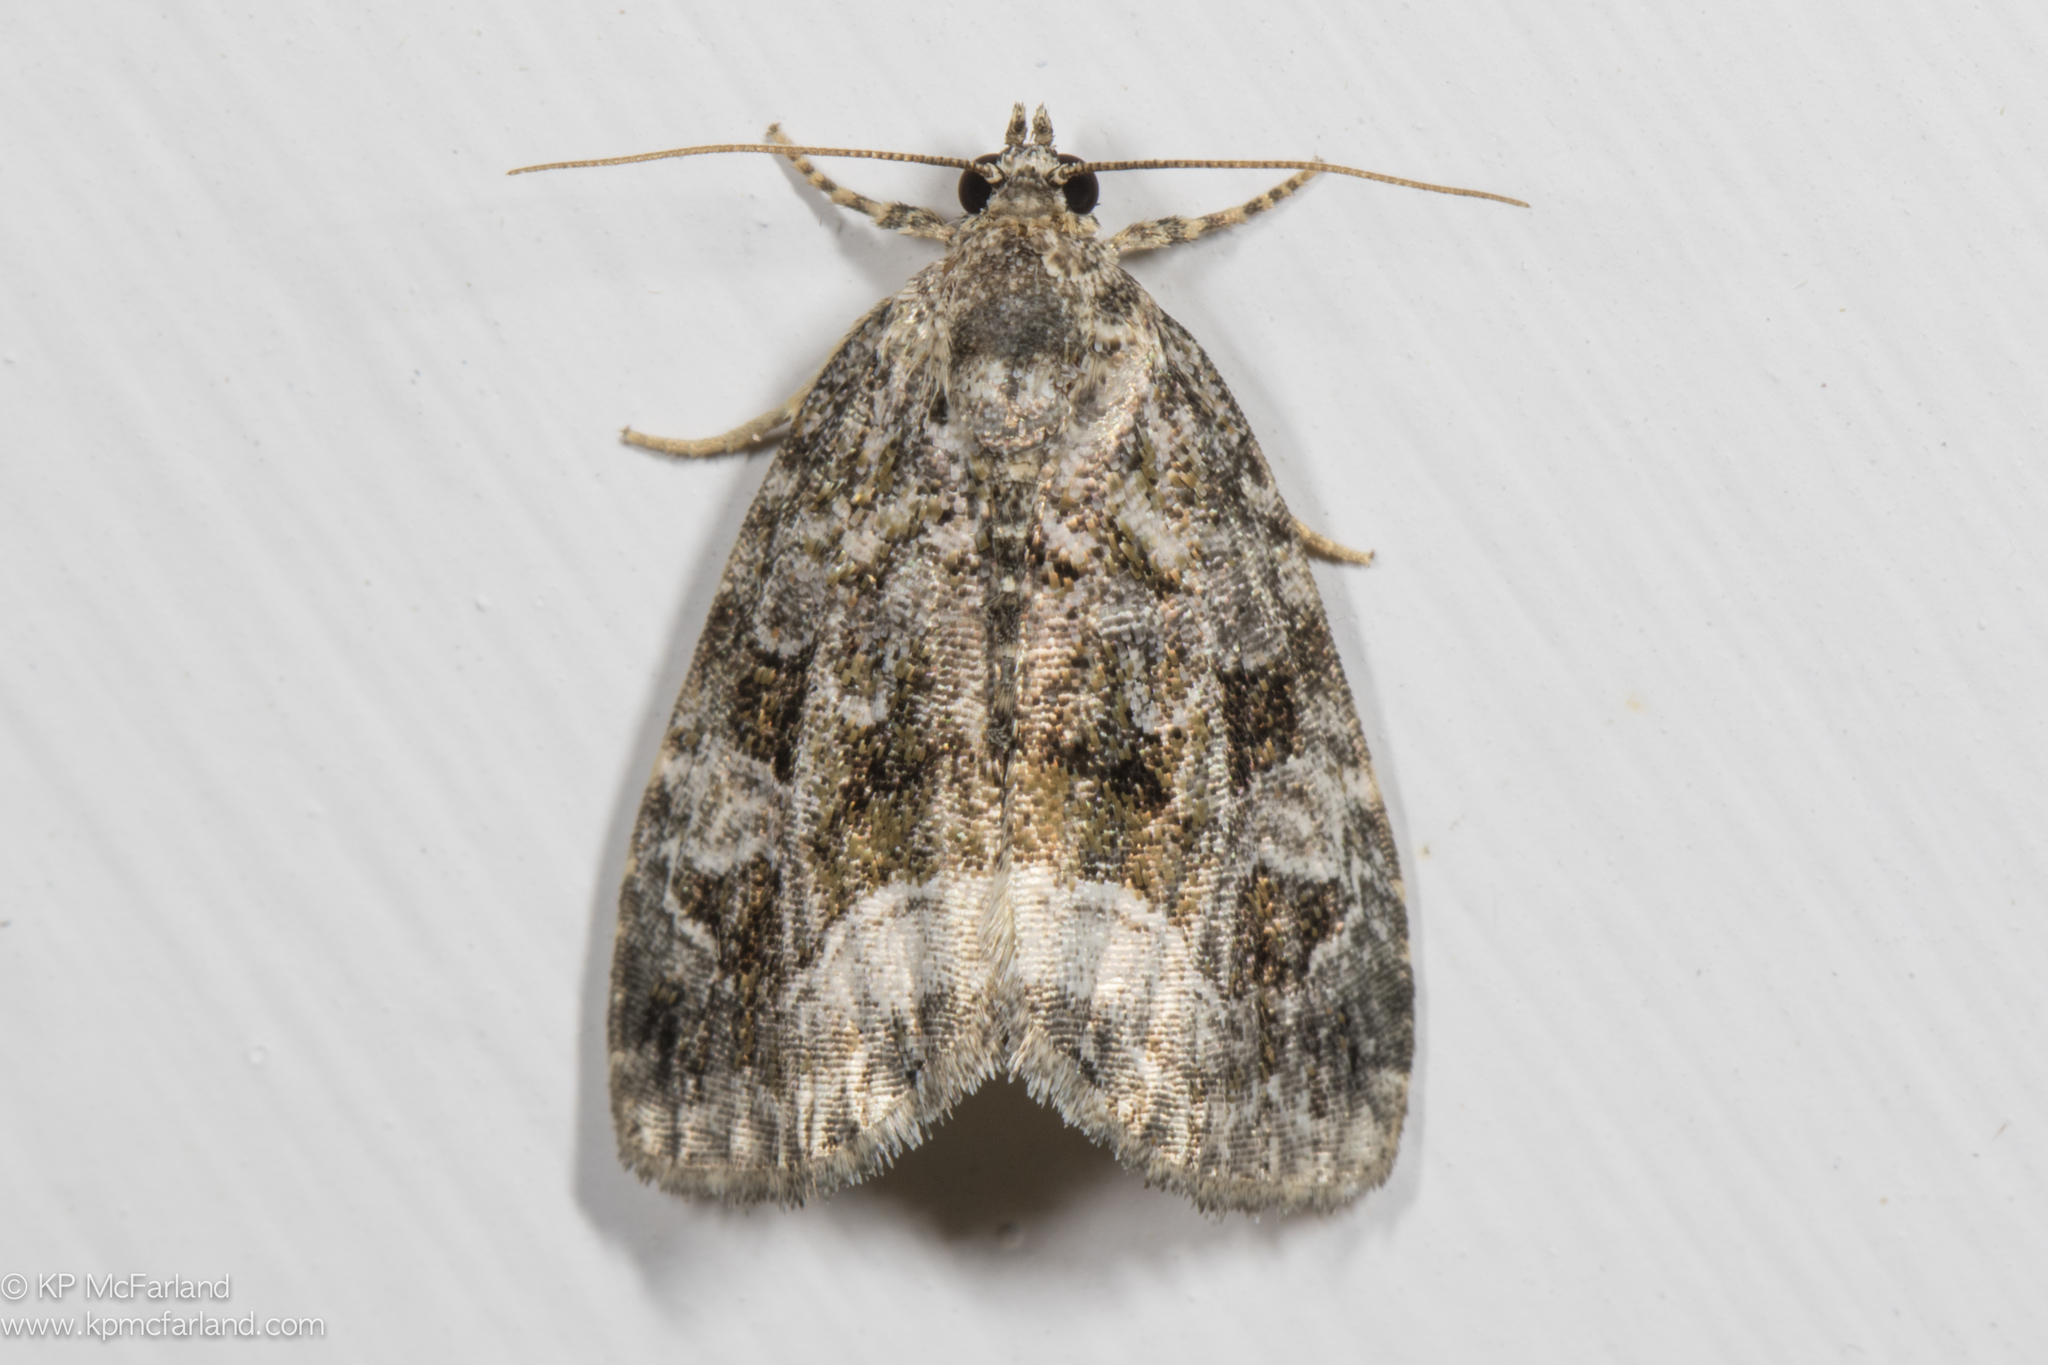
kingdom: Animalia
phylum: Arthropoda
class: Insecta
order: Lepidoptera
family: Noctuidae
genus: Protodeltote
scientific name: Protodeltote muscosula
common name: Large mossy glyph
